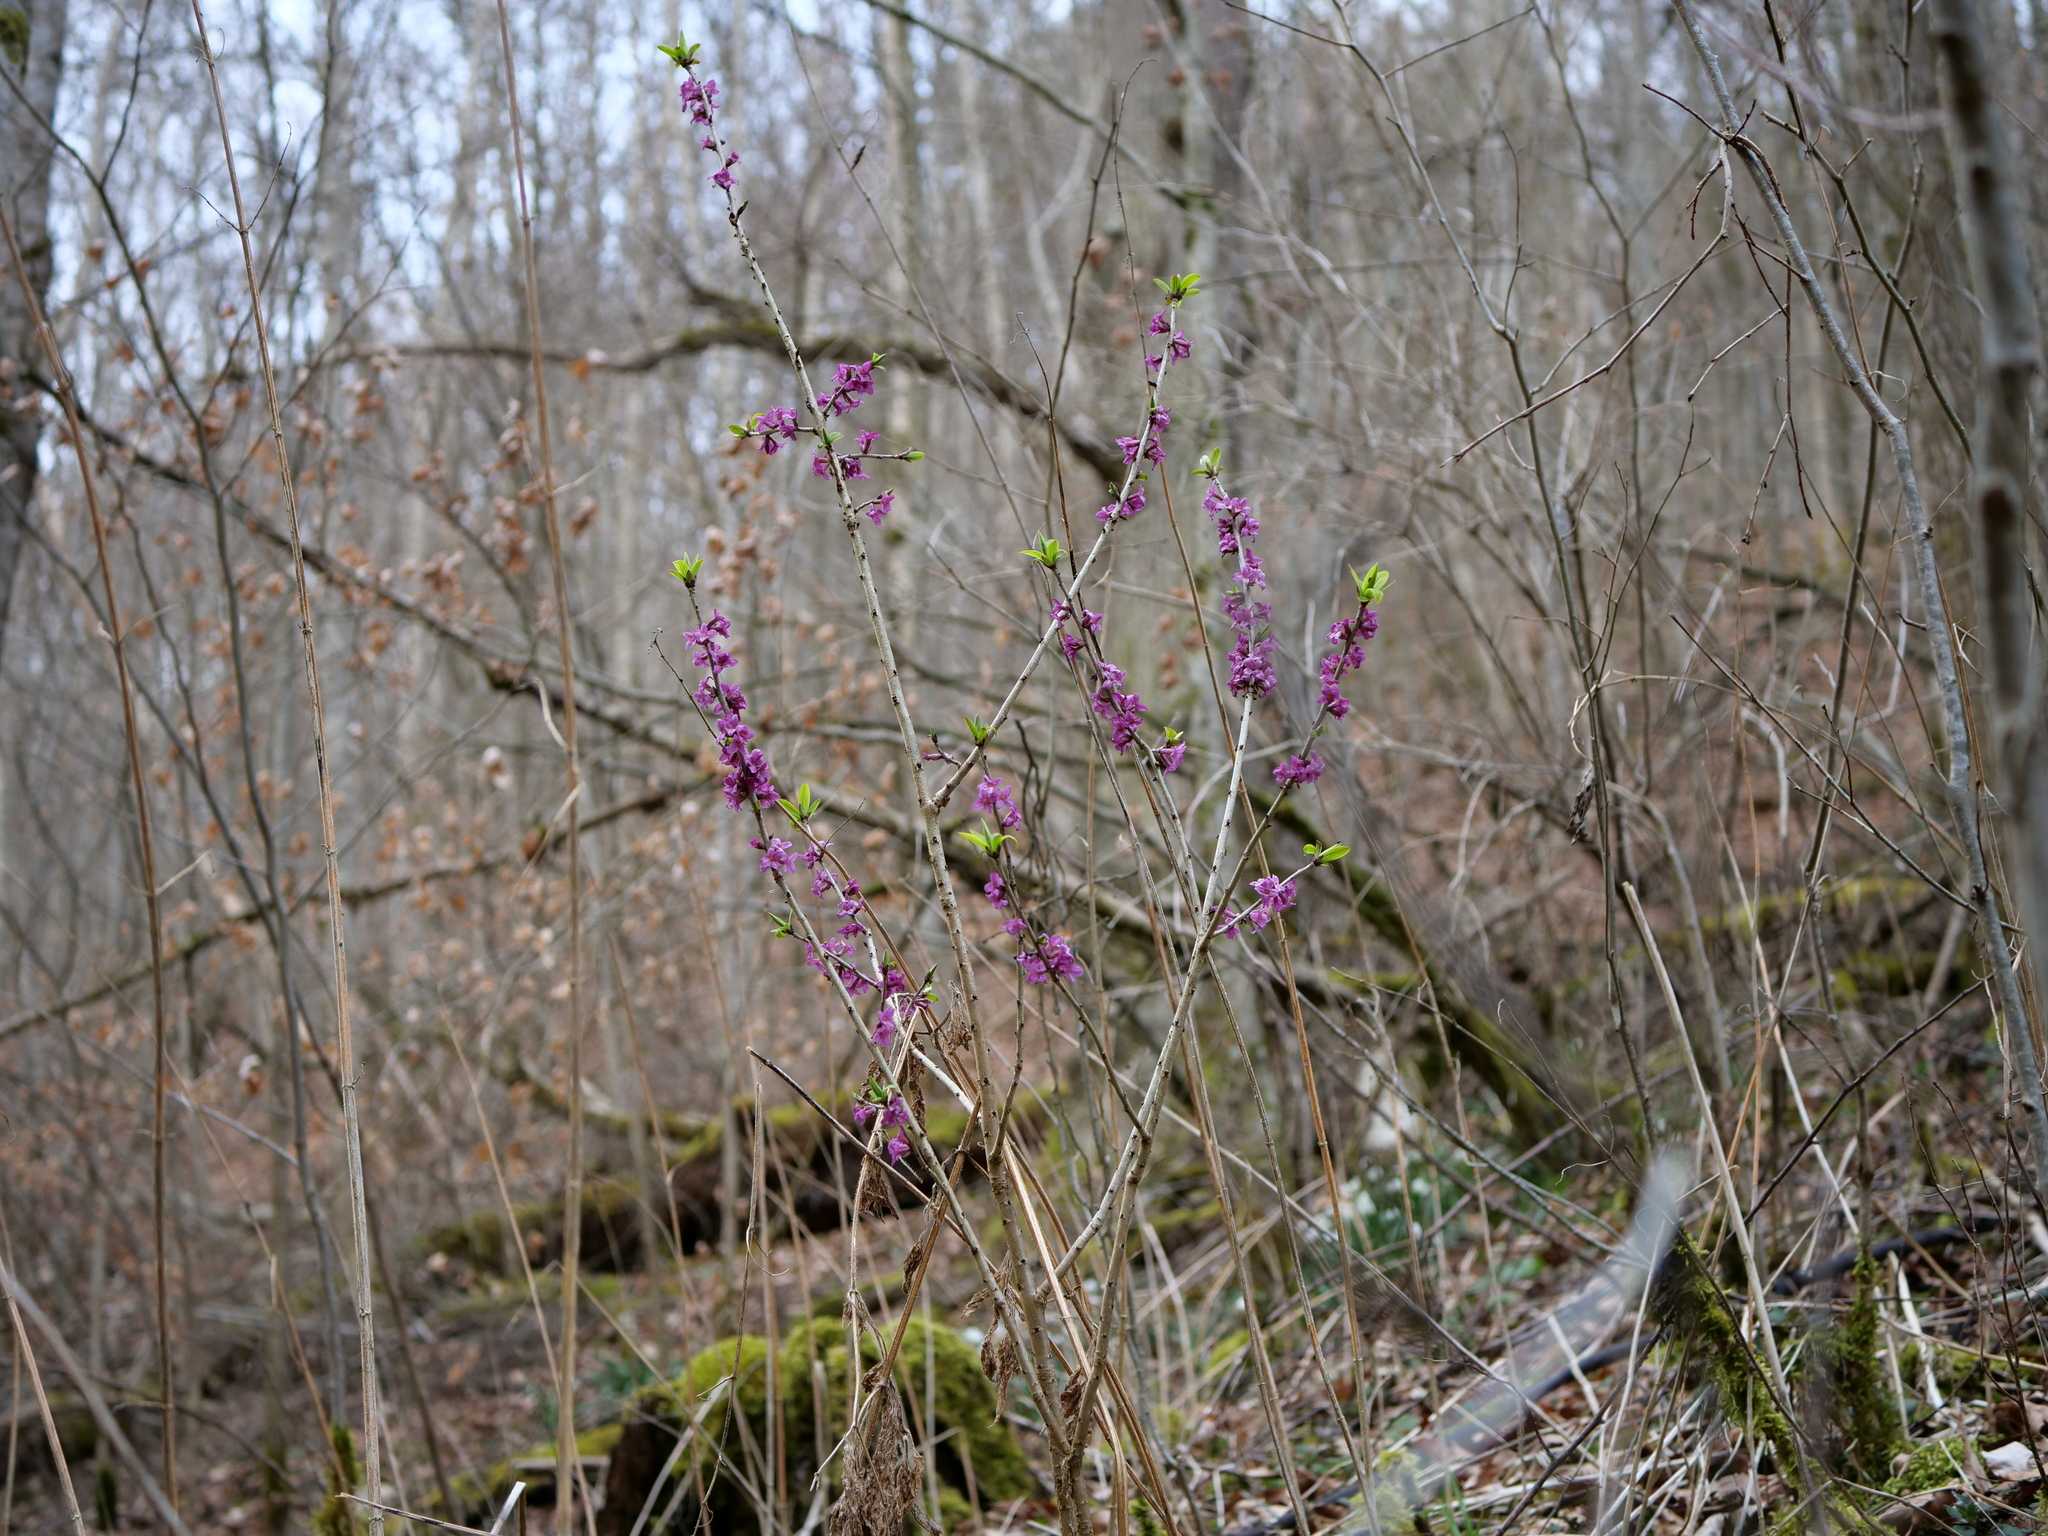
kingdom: Plantae
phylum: Tracheophyta
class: Magnoliopsida
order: Malvales
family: Thymelaeaceae
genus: Daphne
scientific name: Daphne mezereum
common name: Mezereon
